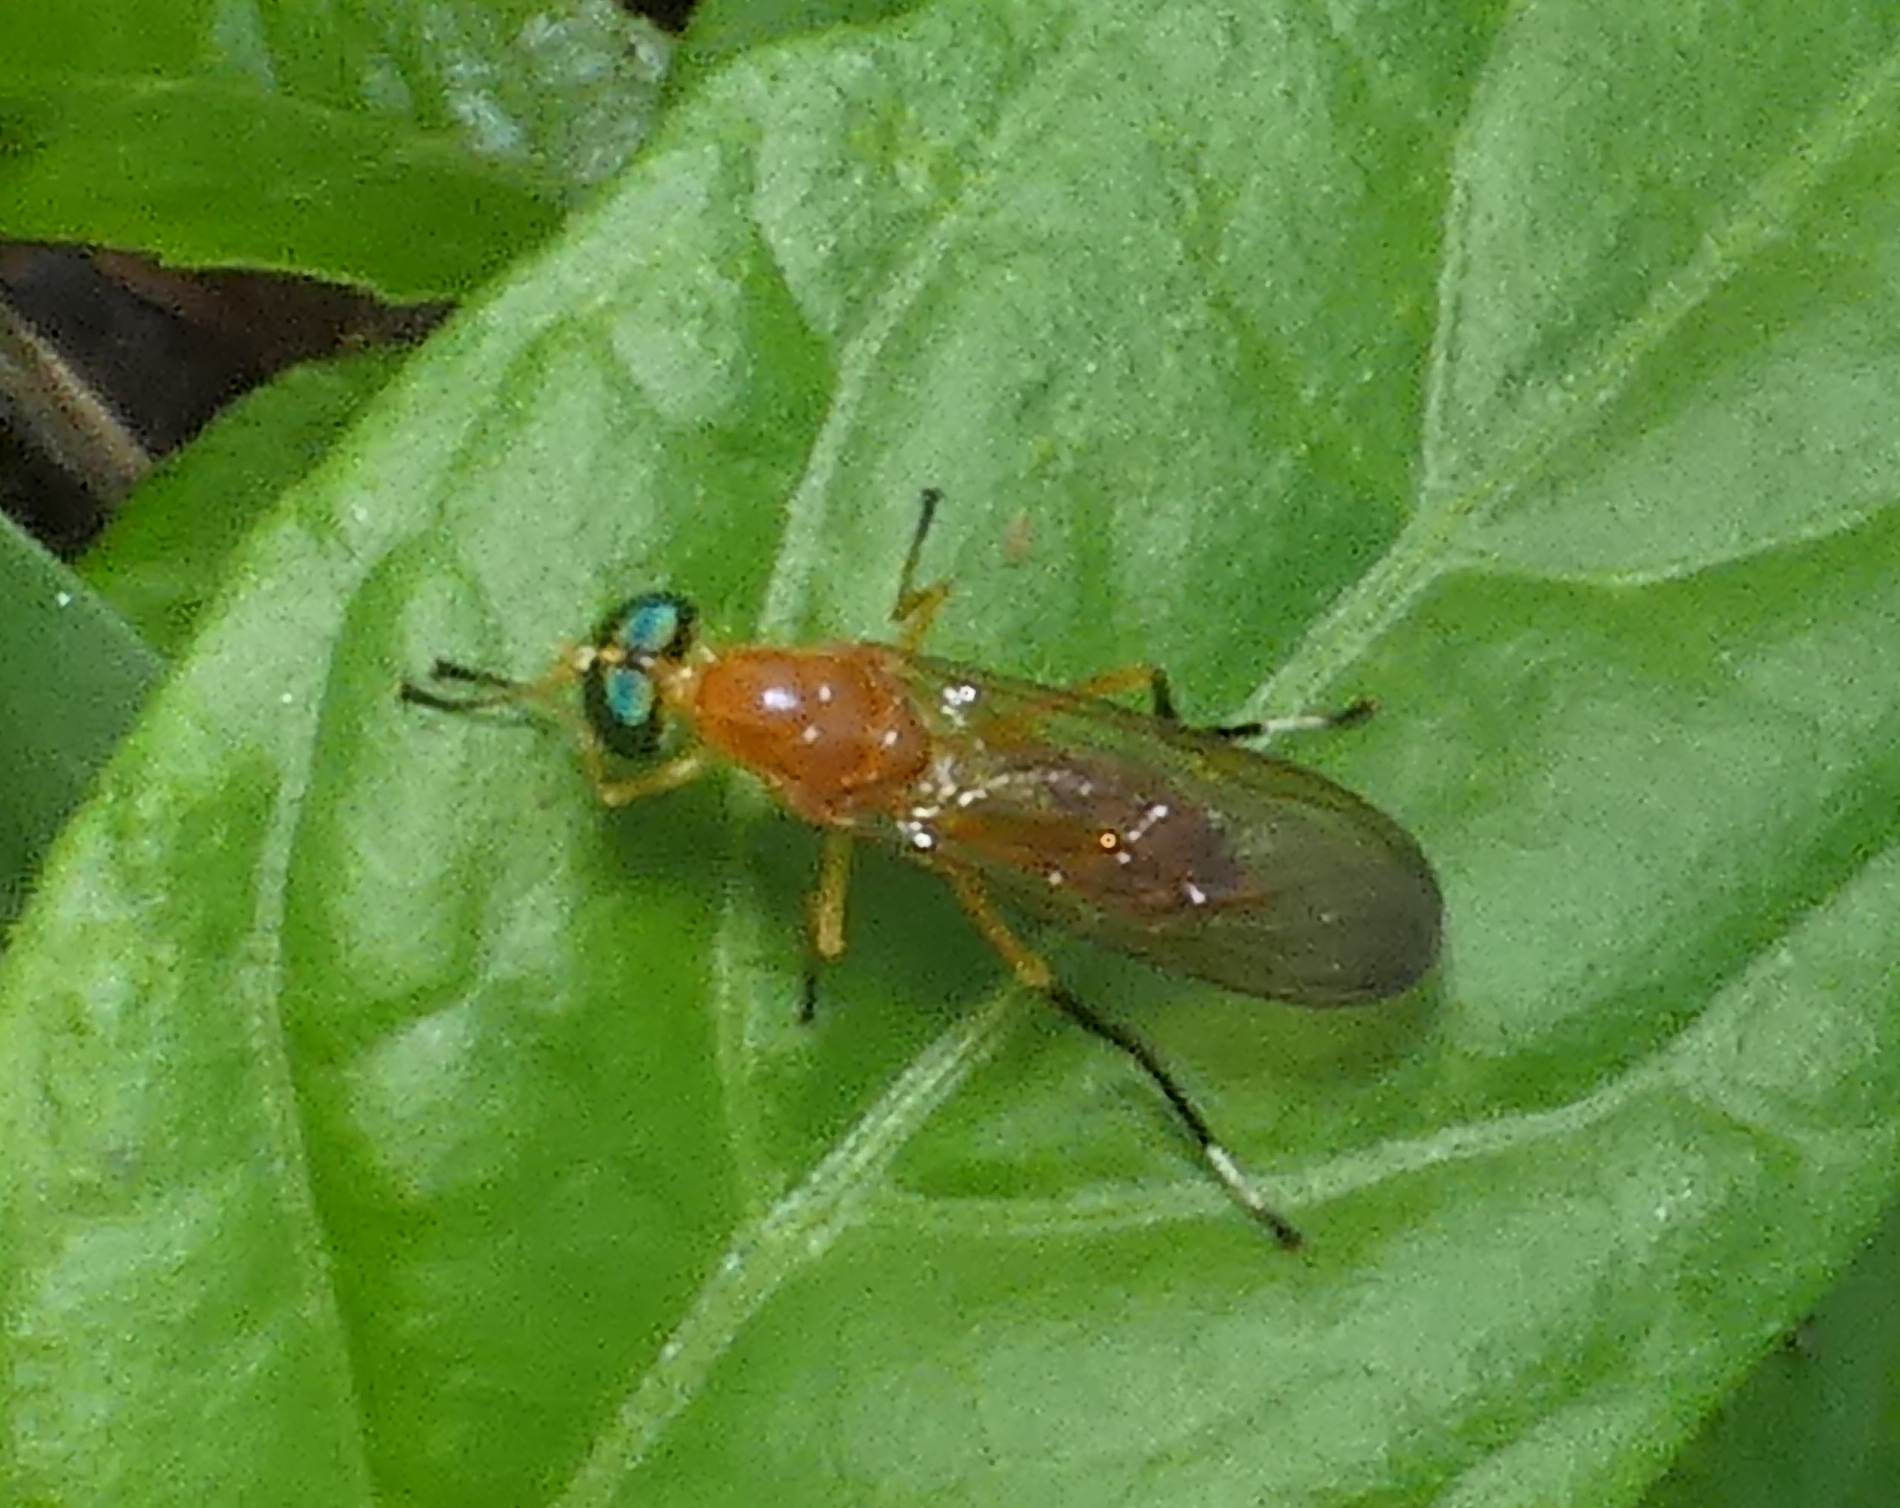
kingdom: Animalia
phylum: Arthropoda
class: Insecta
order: Diptera
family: Stratiomyidae
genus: Ptecticus
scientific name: Ptecticus testaceus
